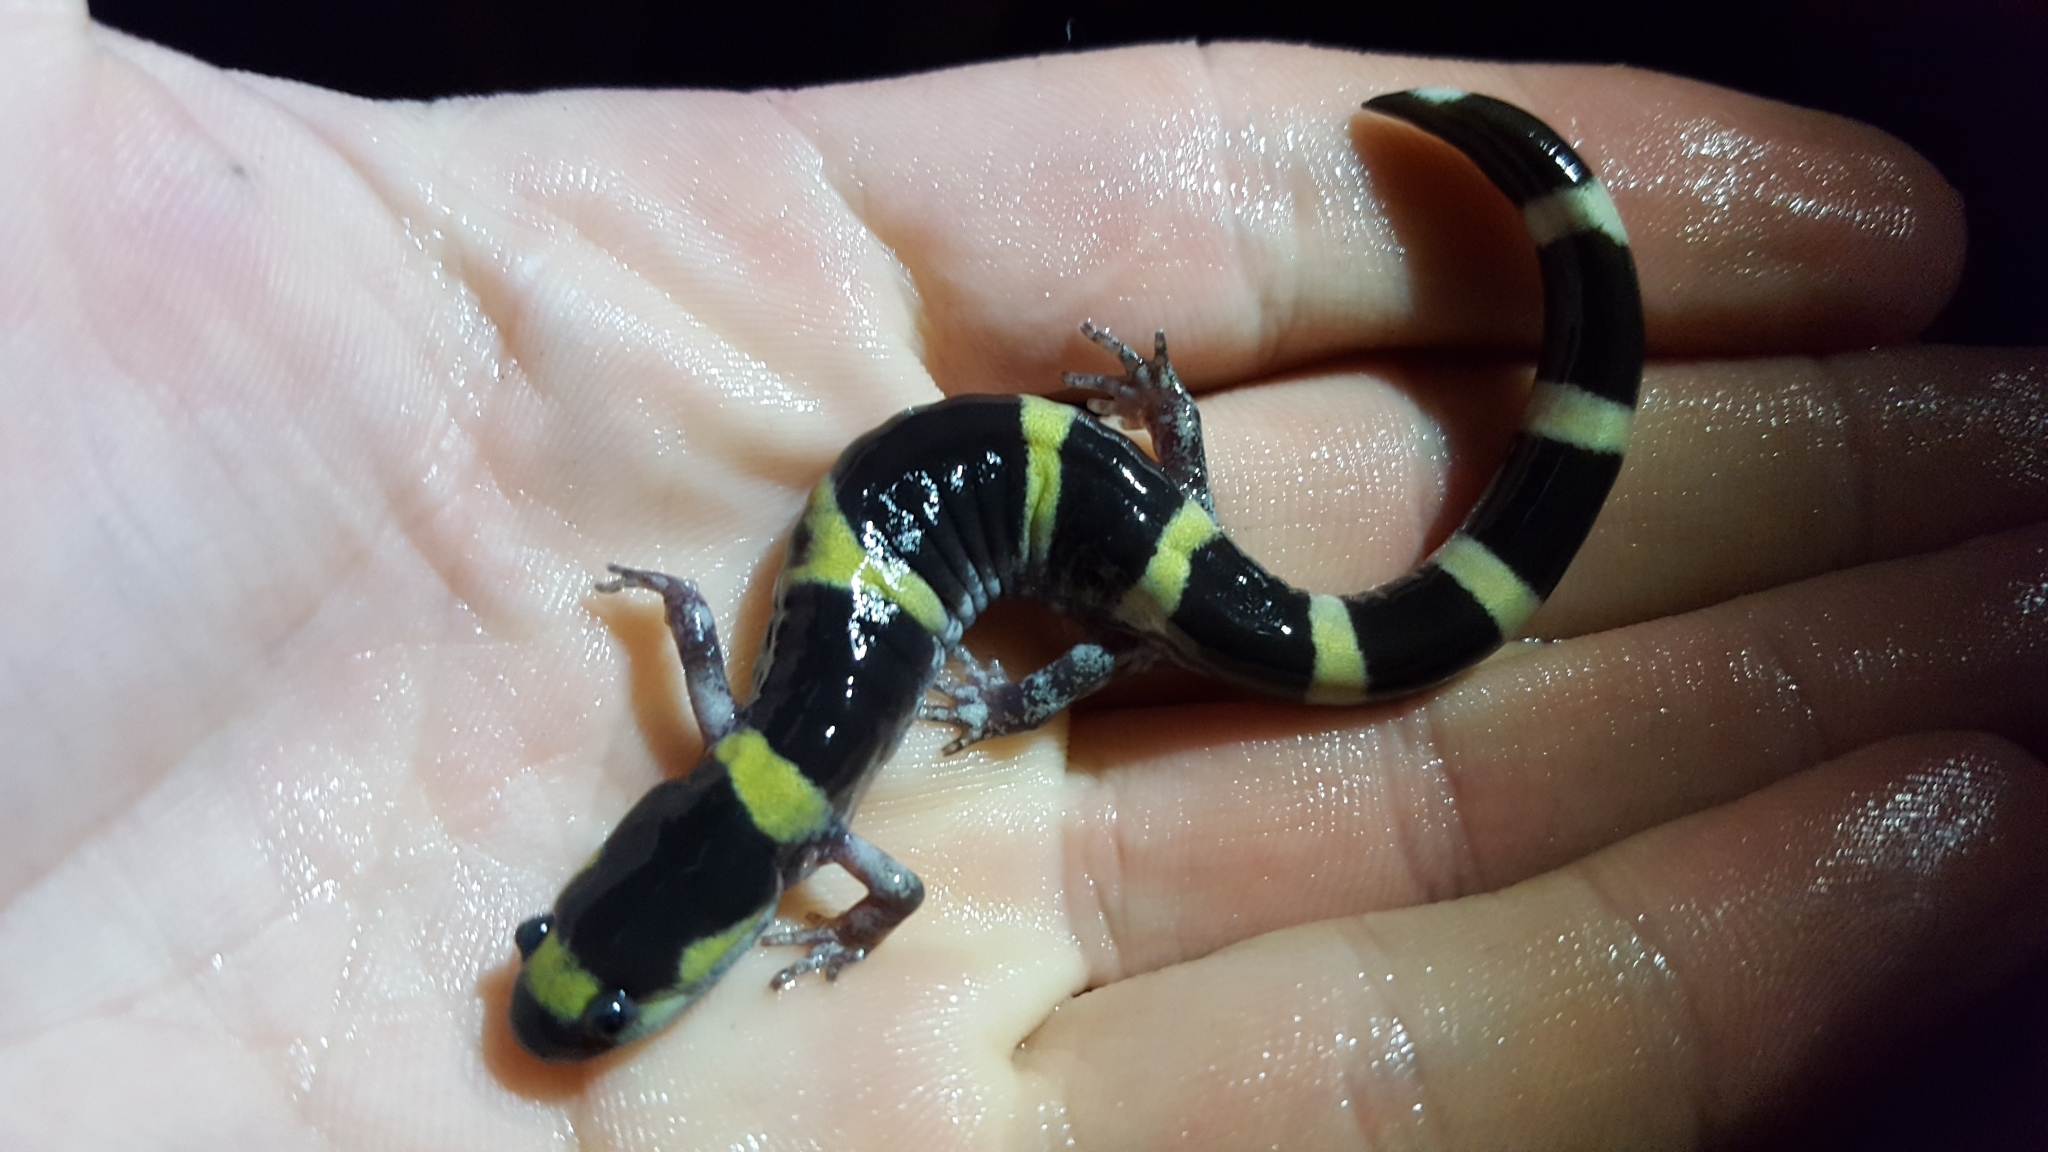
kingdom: Animalia
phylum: Chordata
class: Amphibia
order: Caudata
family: Ambystomatidae
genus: Ambystoma
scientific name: Ambystoma annulatum
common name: Ringed salamander
